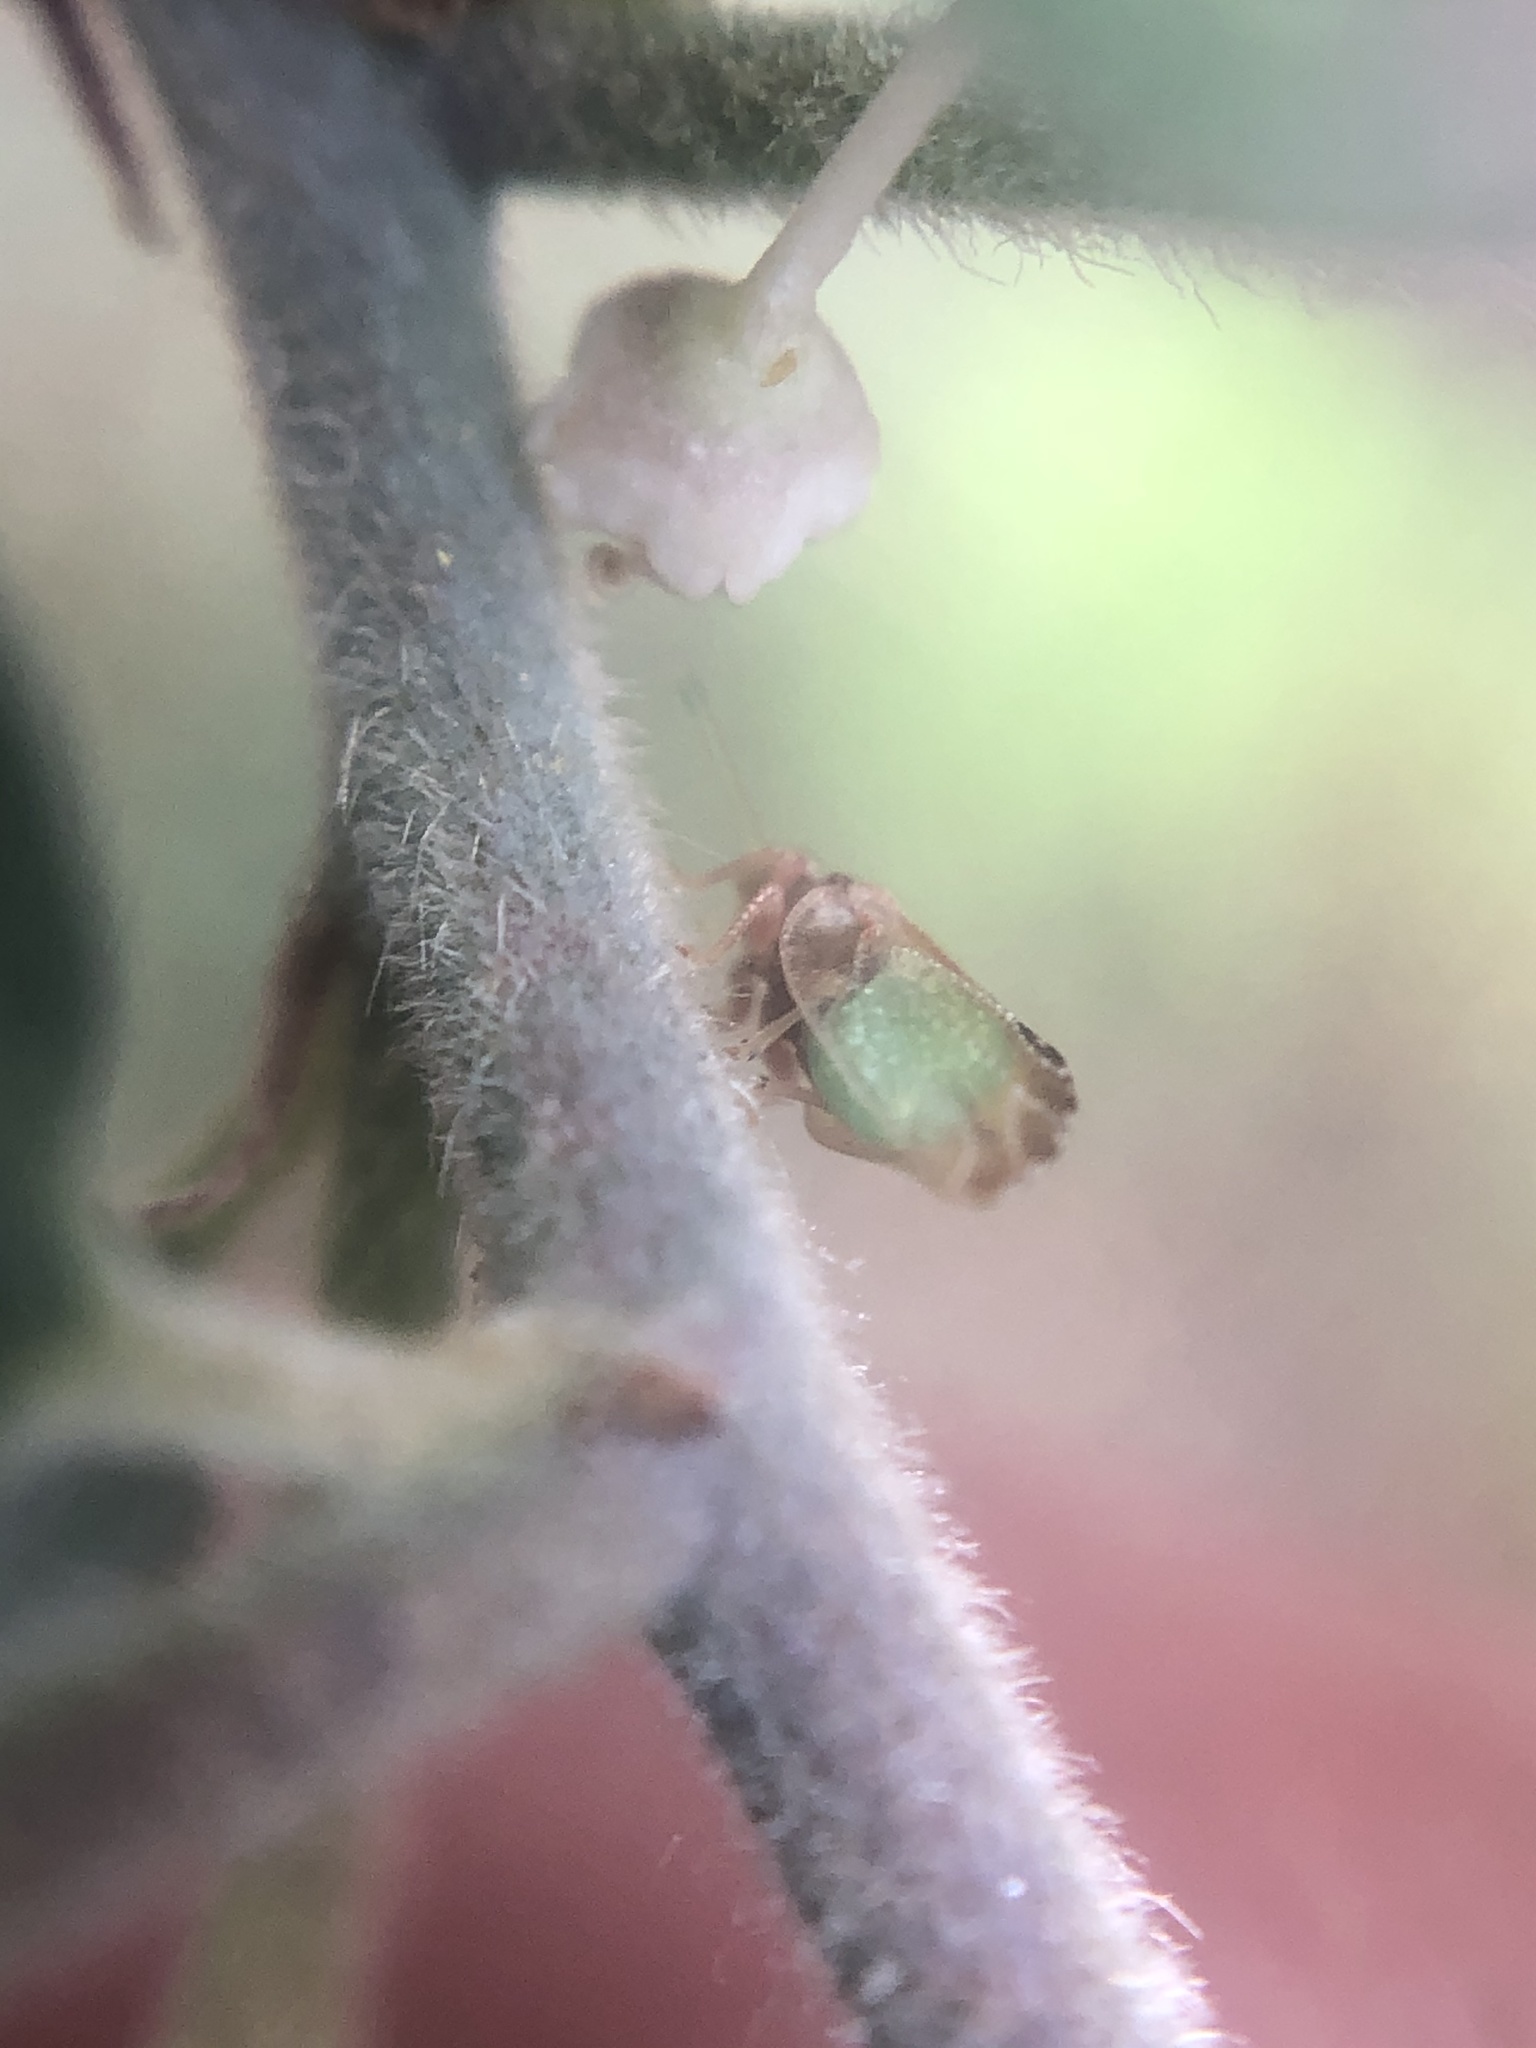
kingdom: Animalia
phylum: Arthropoda
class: Insecta
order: Hemiptera
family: Psyllidae
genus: Nyctiphalerus
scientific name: Nyctiphalerus propinquus
